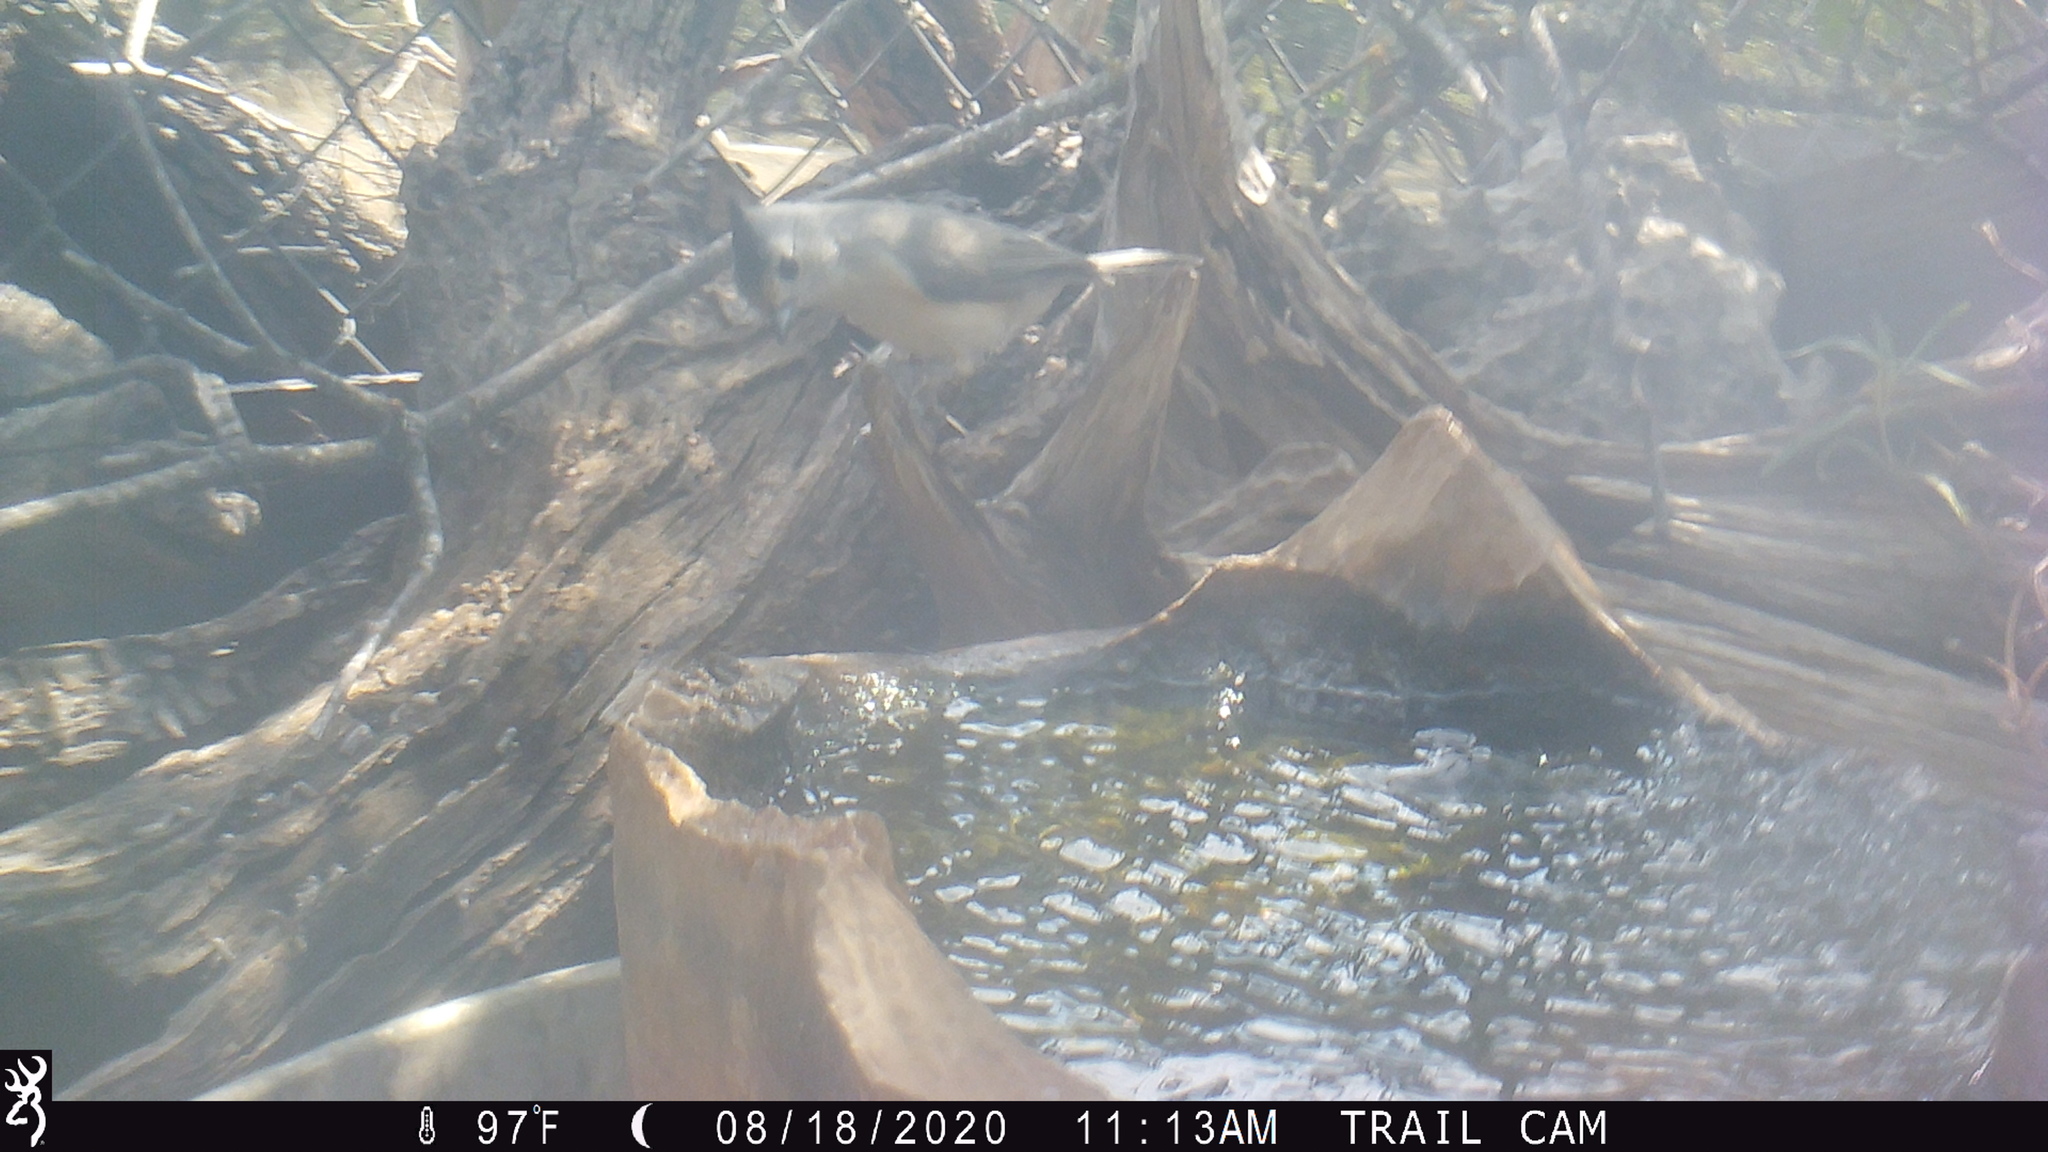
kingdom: Animalia
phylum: Chordata
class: Aves
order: Passeriformes
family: Paridae
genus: Baeolophus
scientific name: Baeolophus atricristatus
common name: Black-crested titmouse
